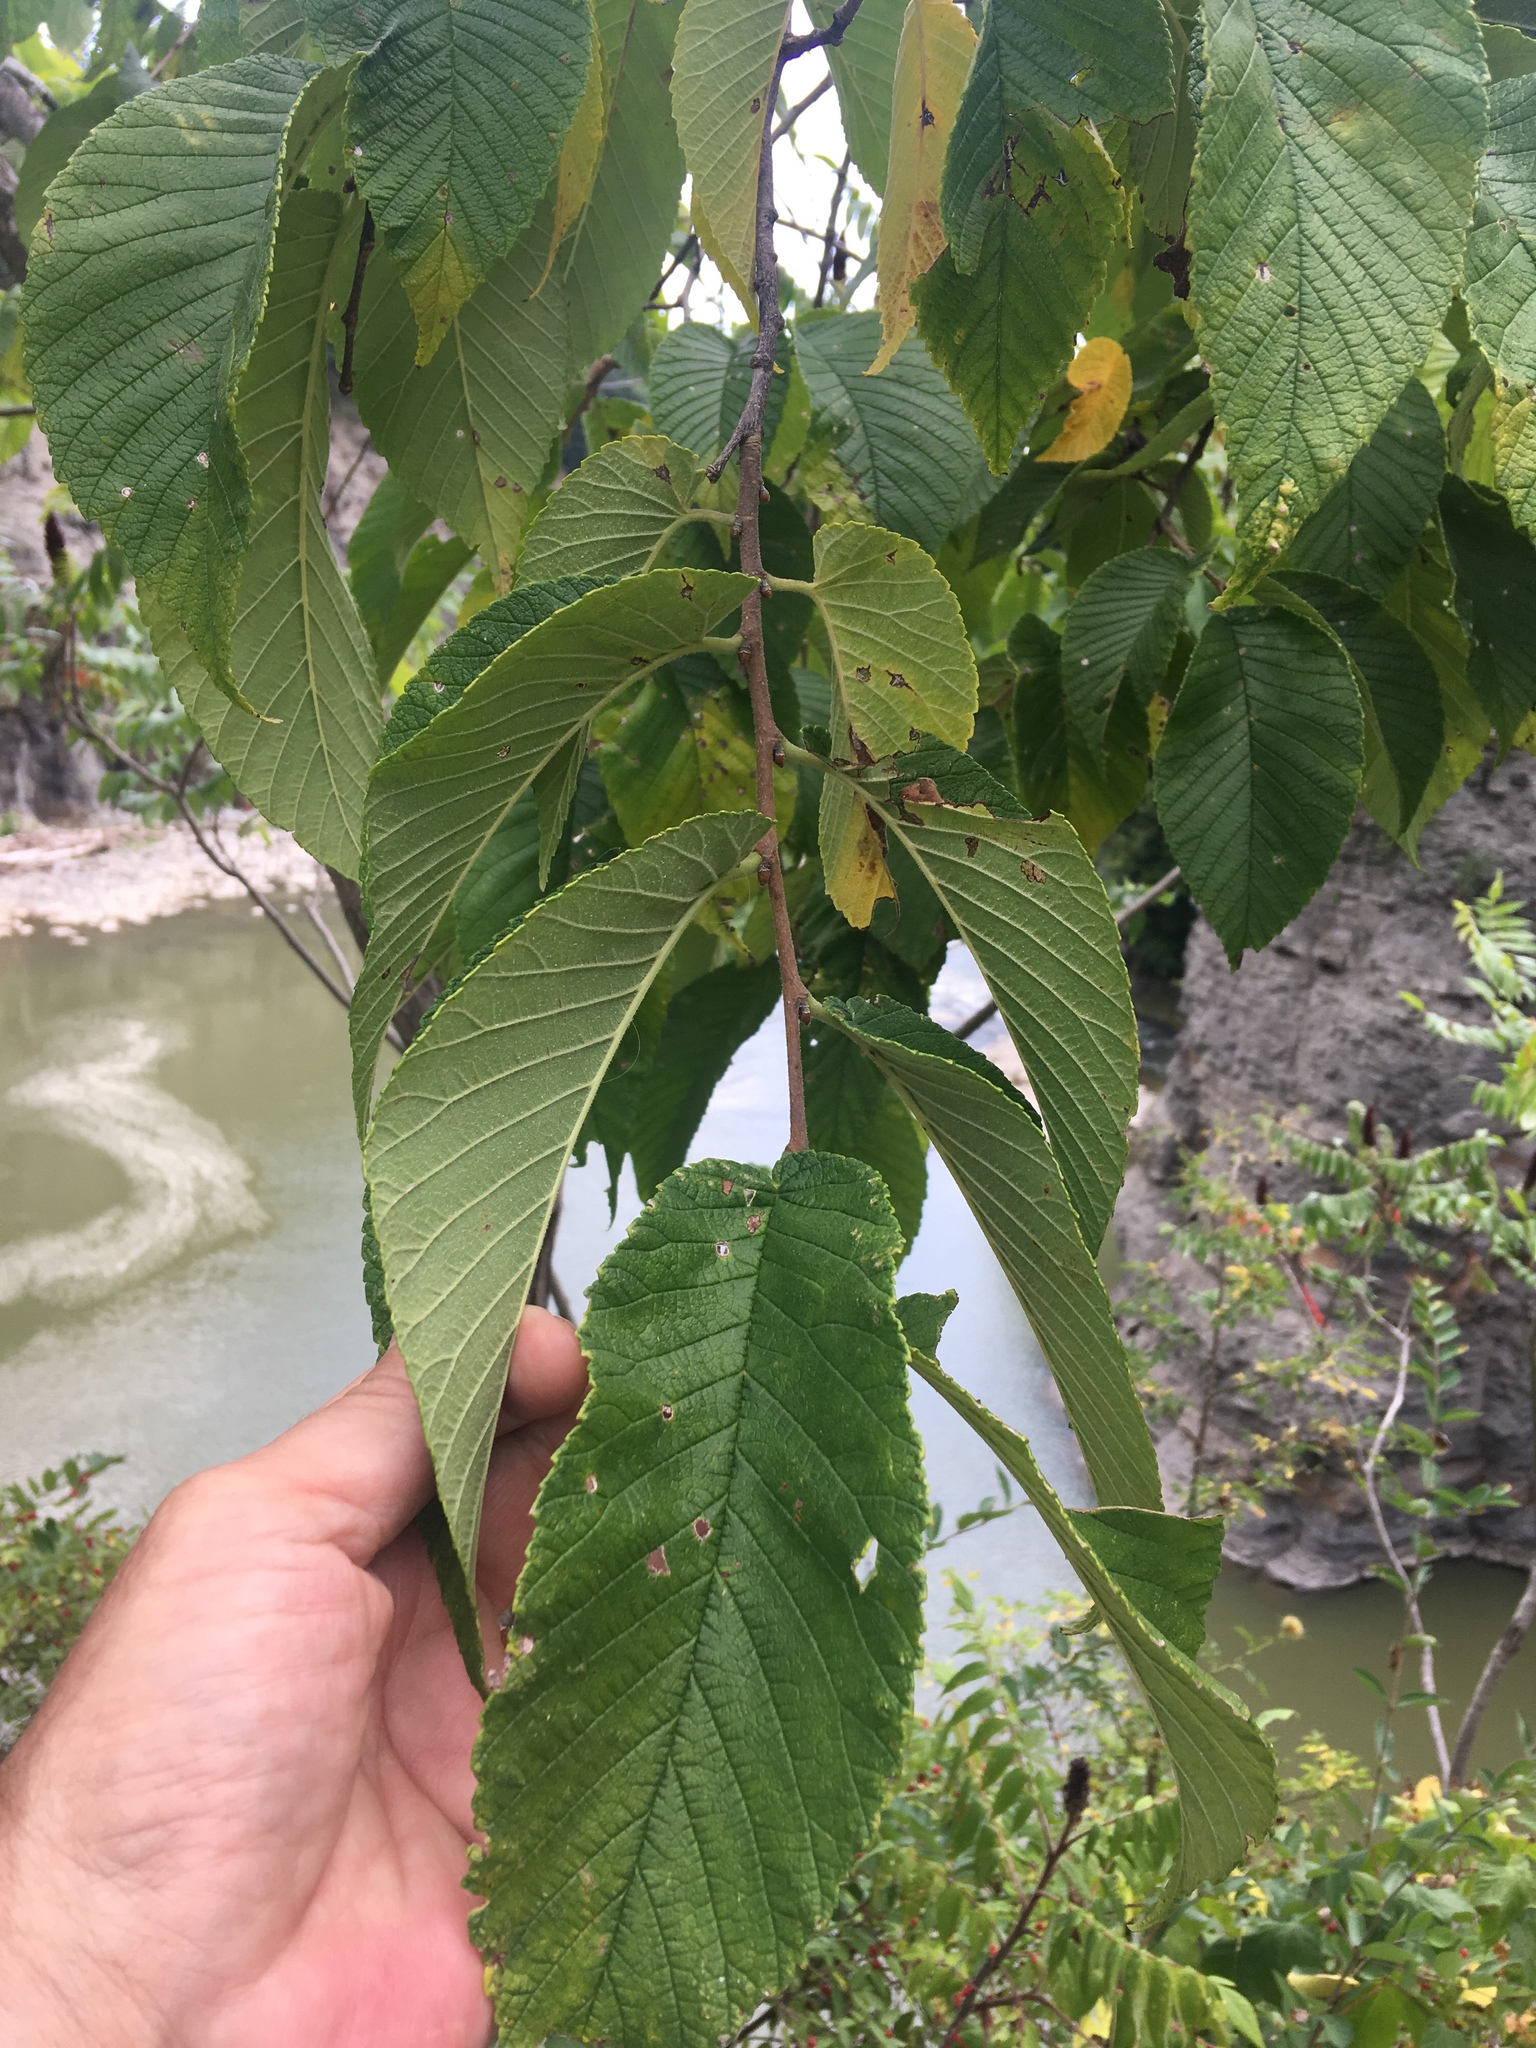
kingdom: Plantae
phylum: Tracheophyta
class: Magnoliopsida
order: Rosales
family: Ulmaceae
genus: Ulmus
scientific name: Ulmus rubra
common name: Slippery elm
